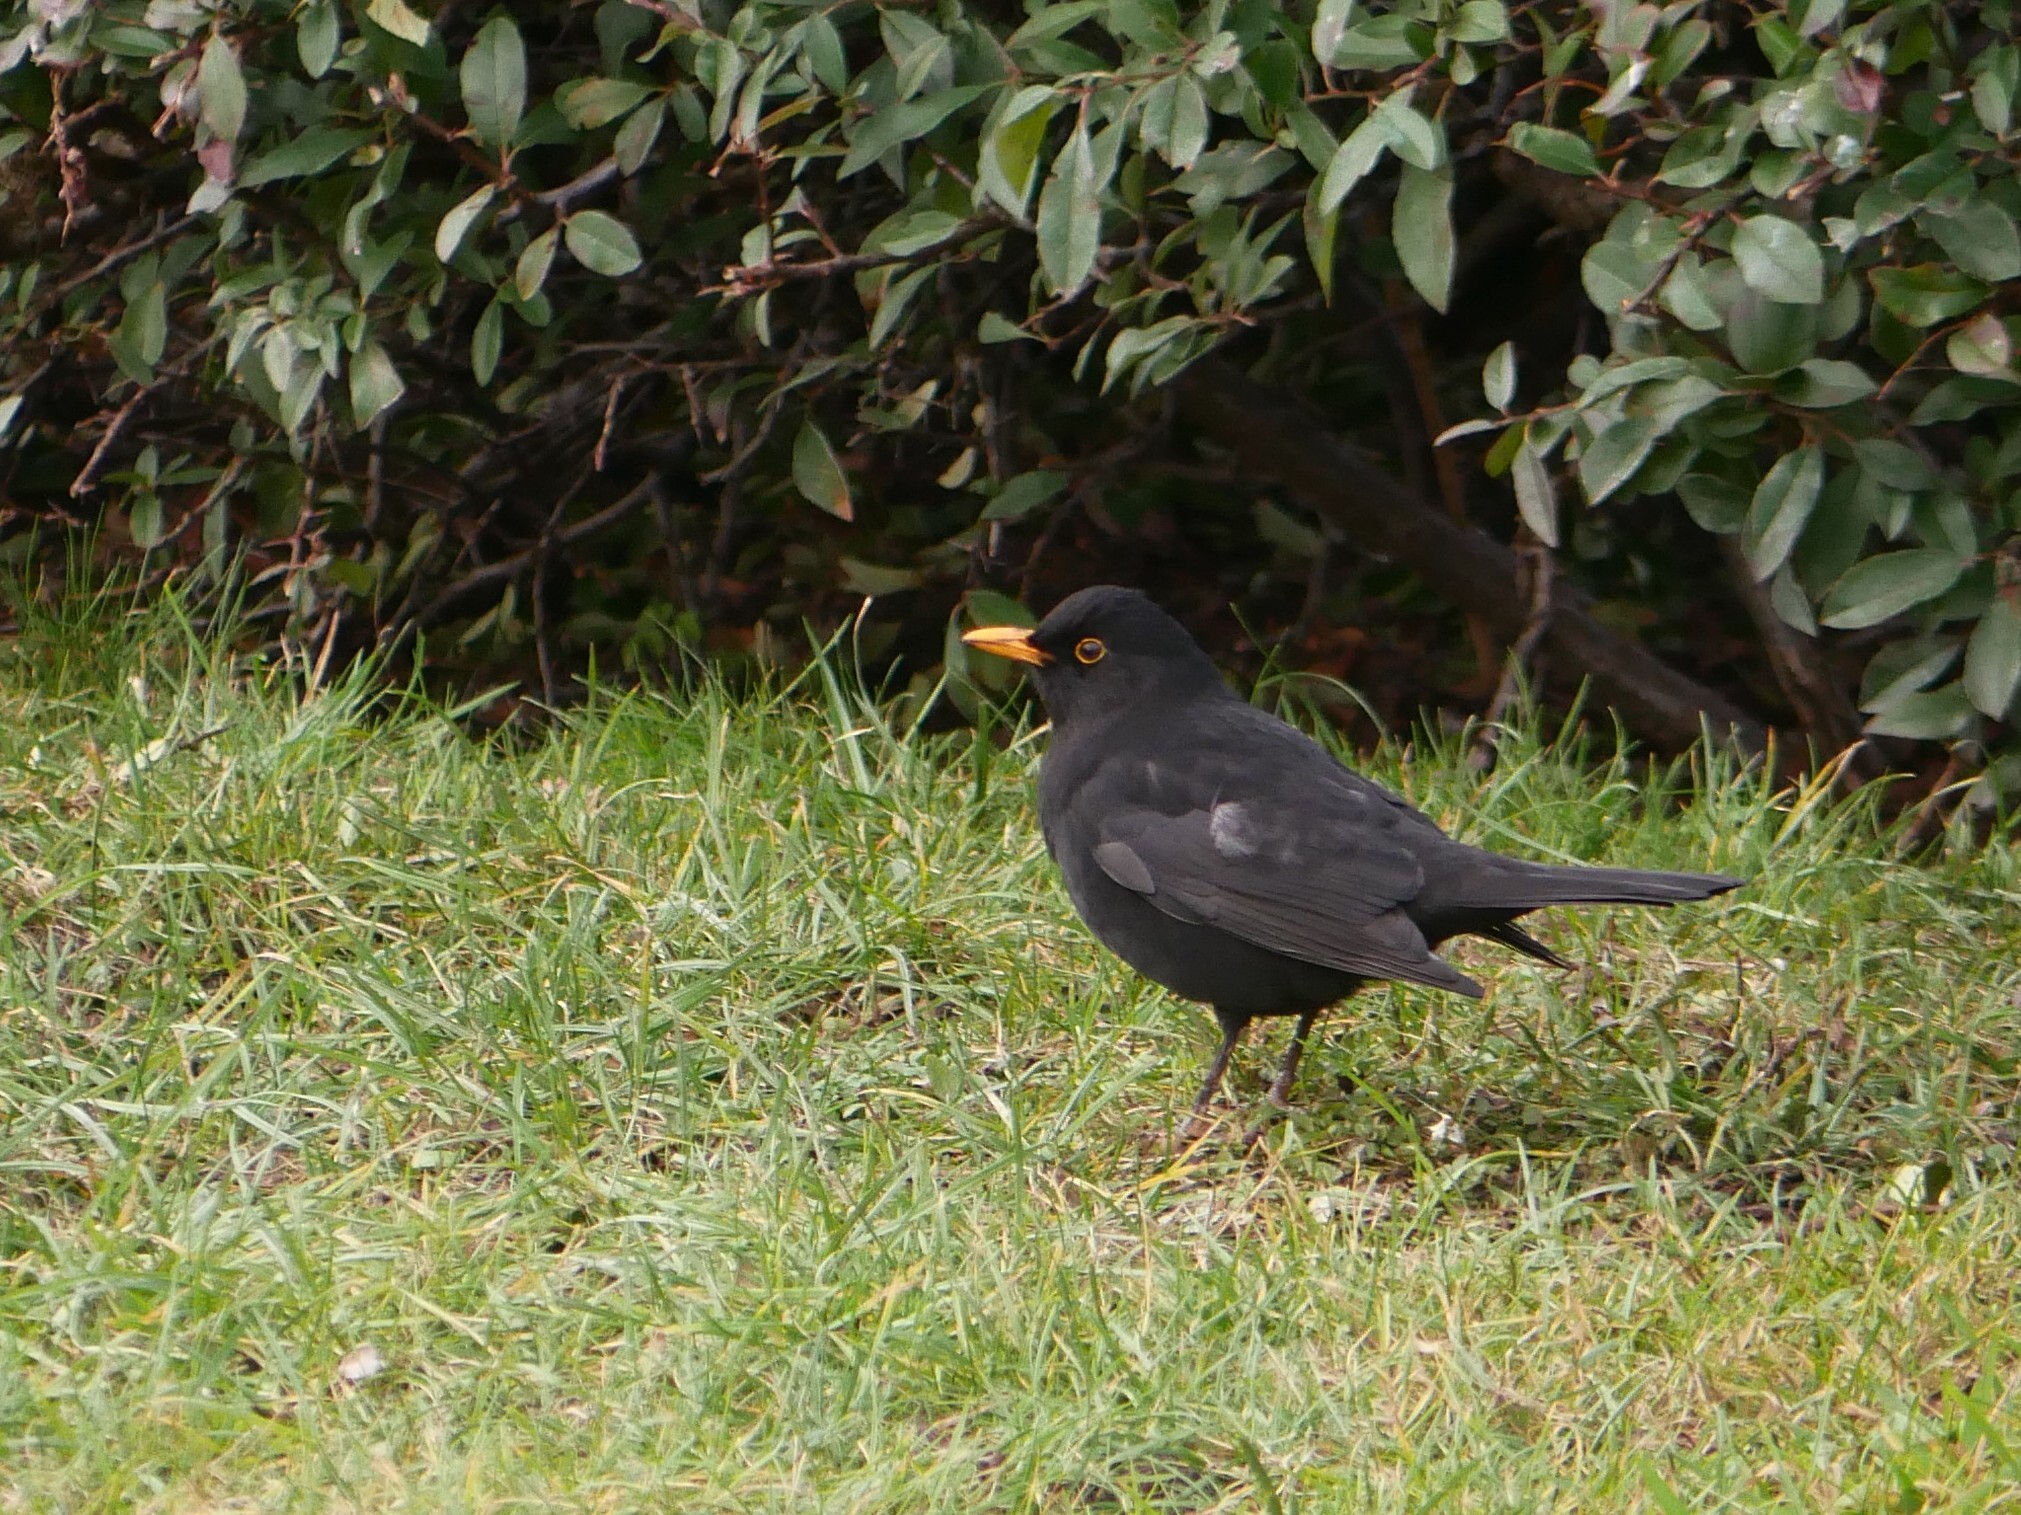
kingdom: Animalia
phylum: Chordata
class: Aves
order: Passeriformes
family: Turdidae
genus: Turdus
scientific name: Turdus merula
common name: Common blackbird
